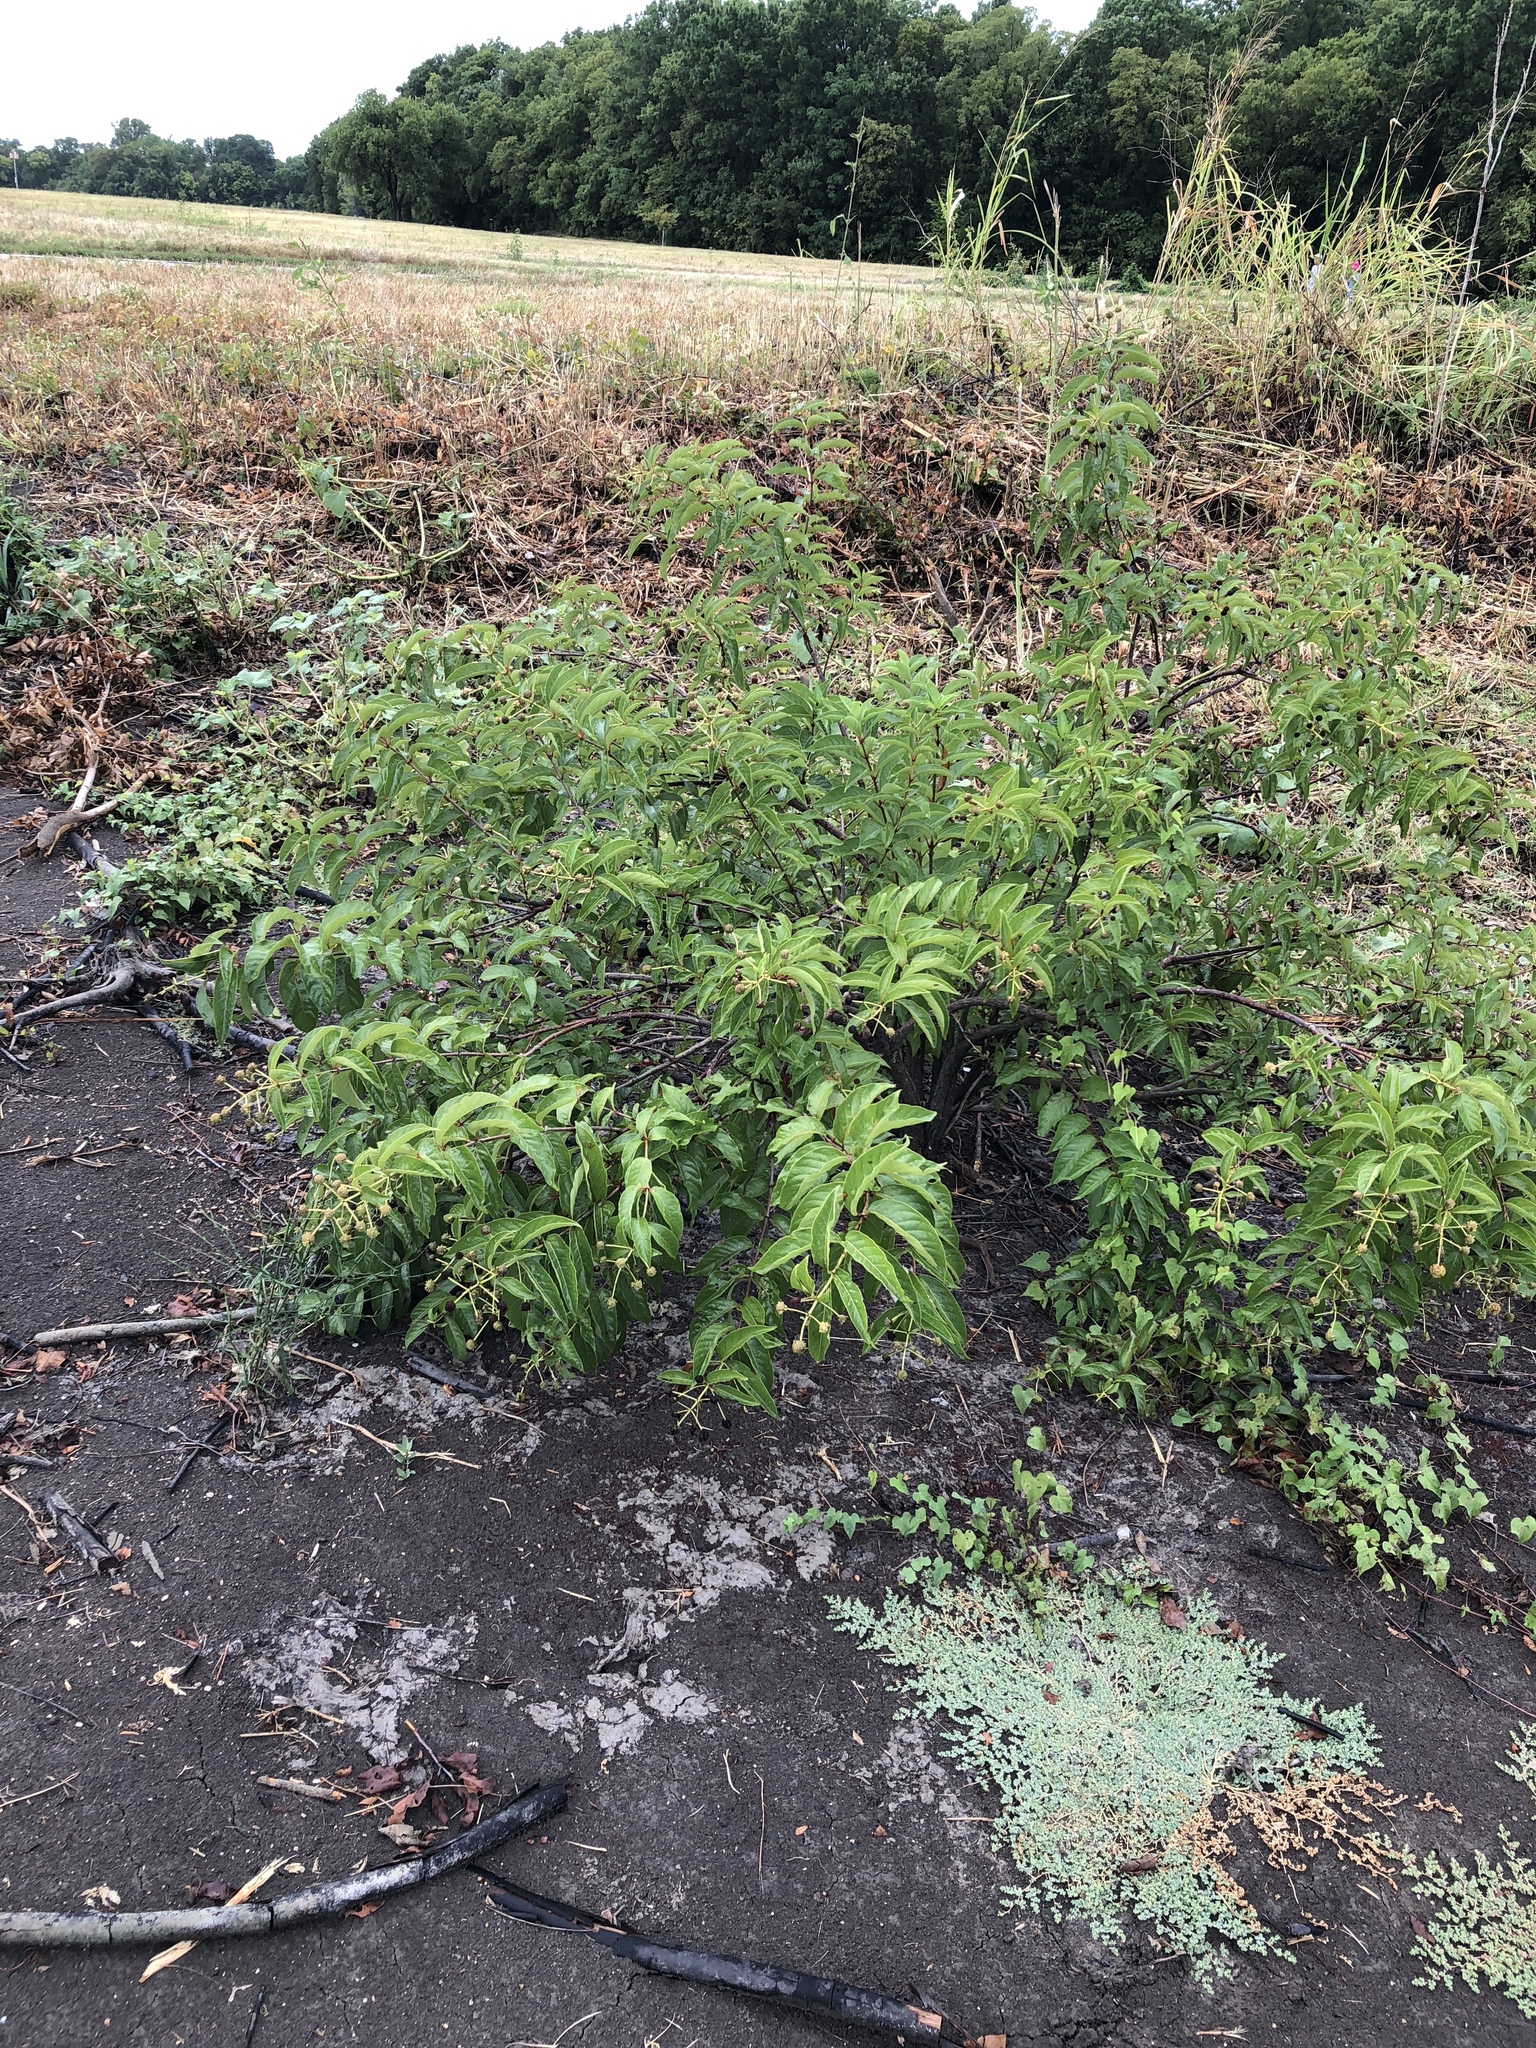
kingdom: Plantae
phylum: Tracheophyta
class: Magnoliopsida
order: Gentianales
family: Rubiaceae
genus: Cephalanthus
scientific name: Cephalanthus occidentalis
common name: Button-willow
